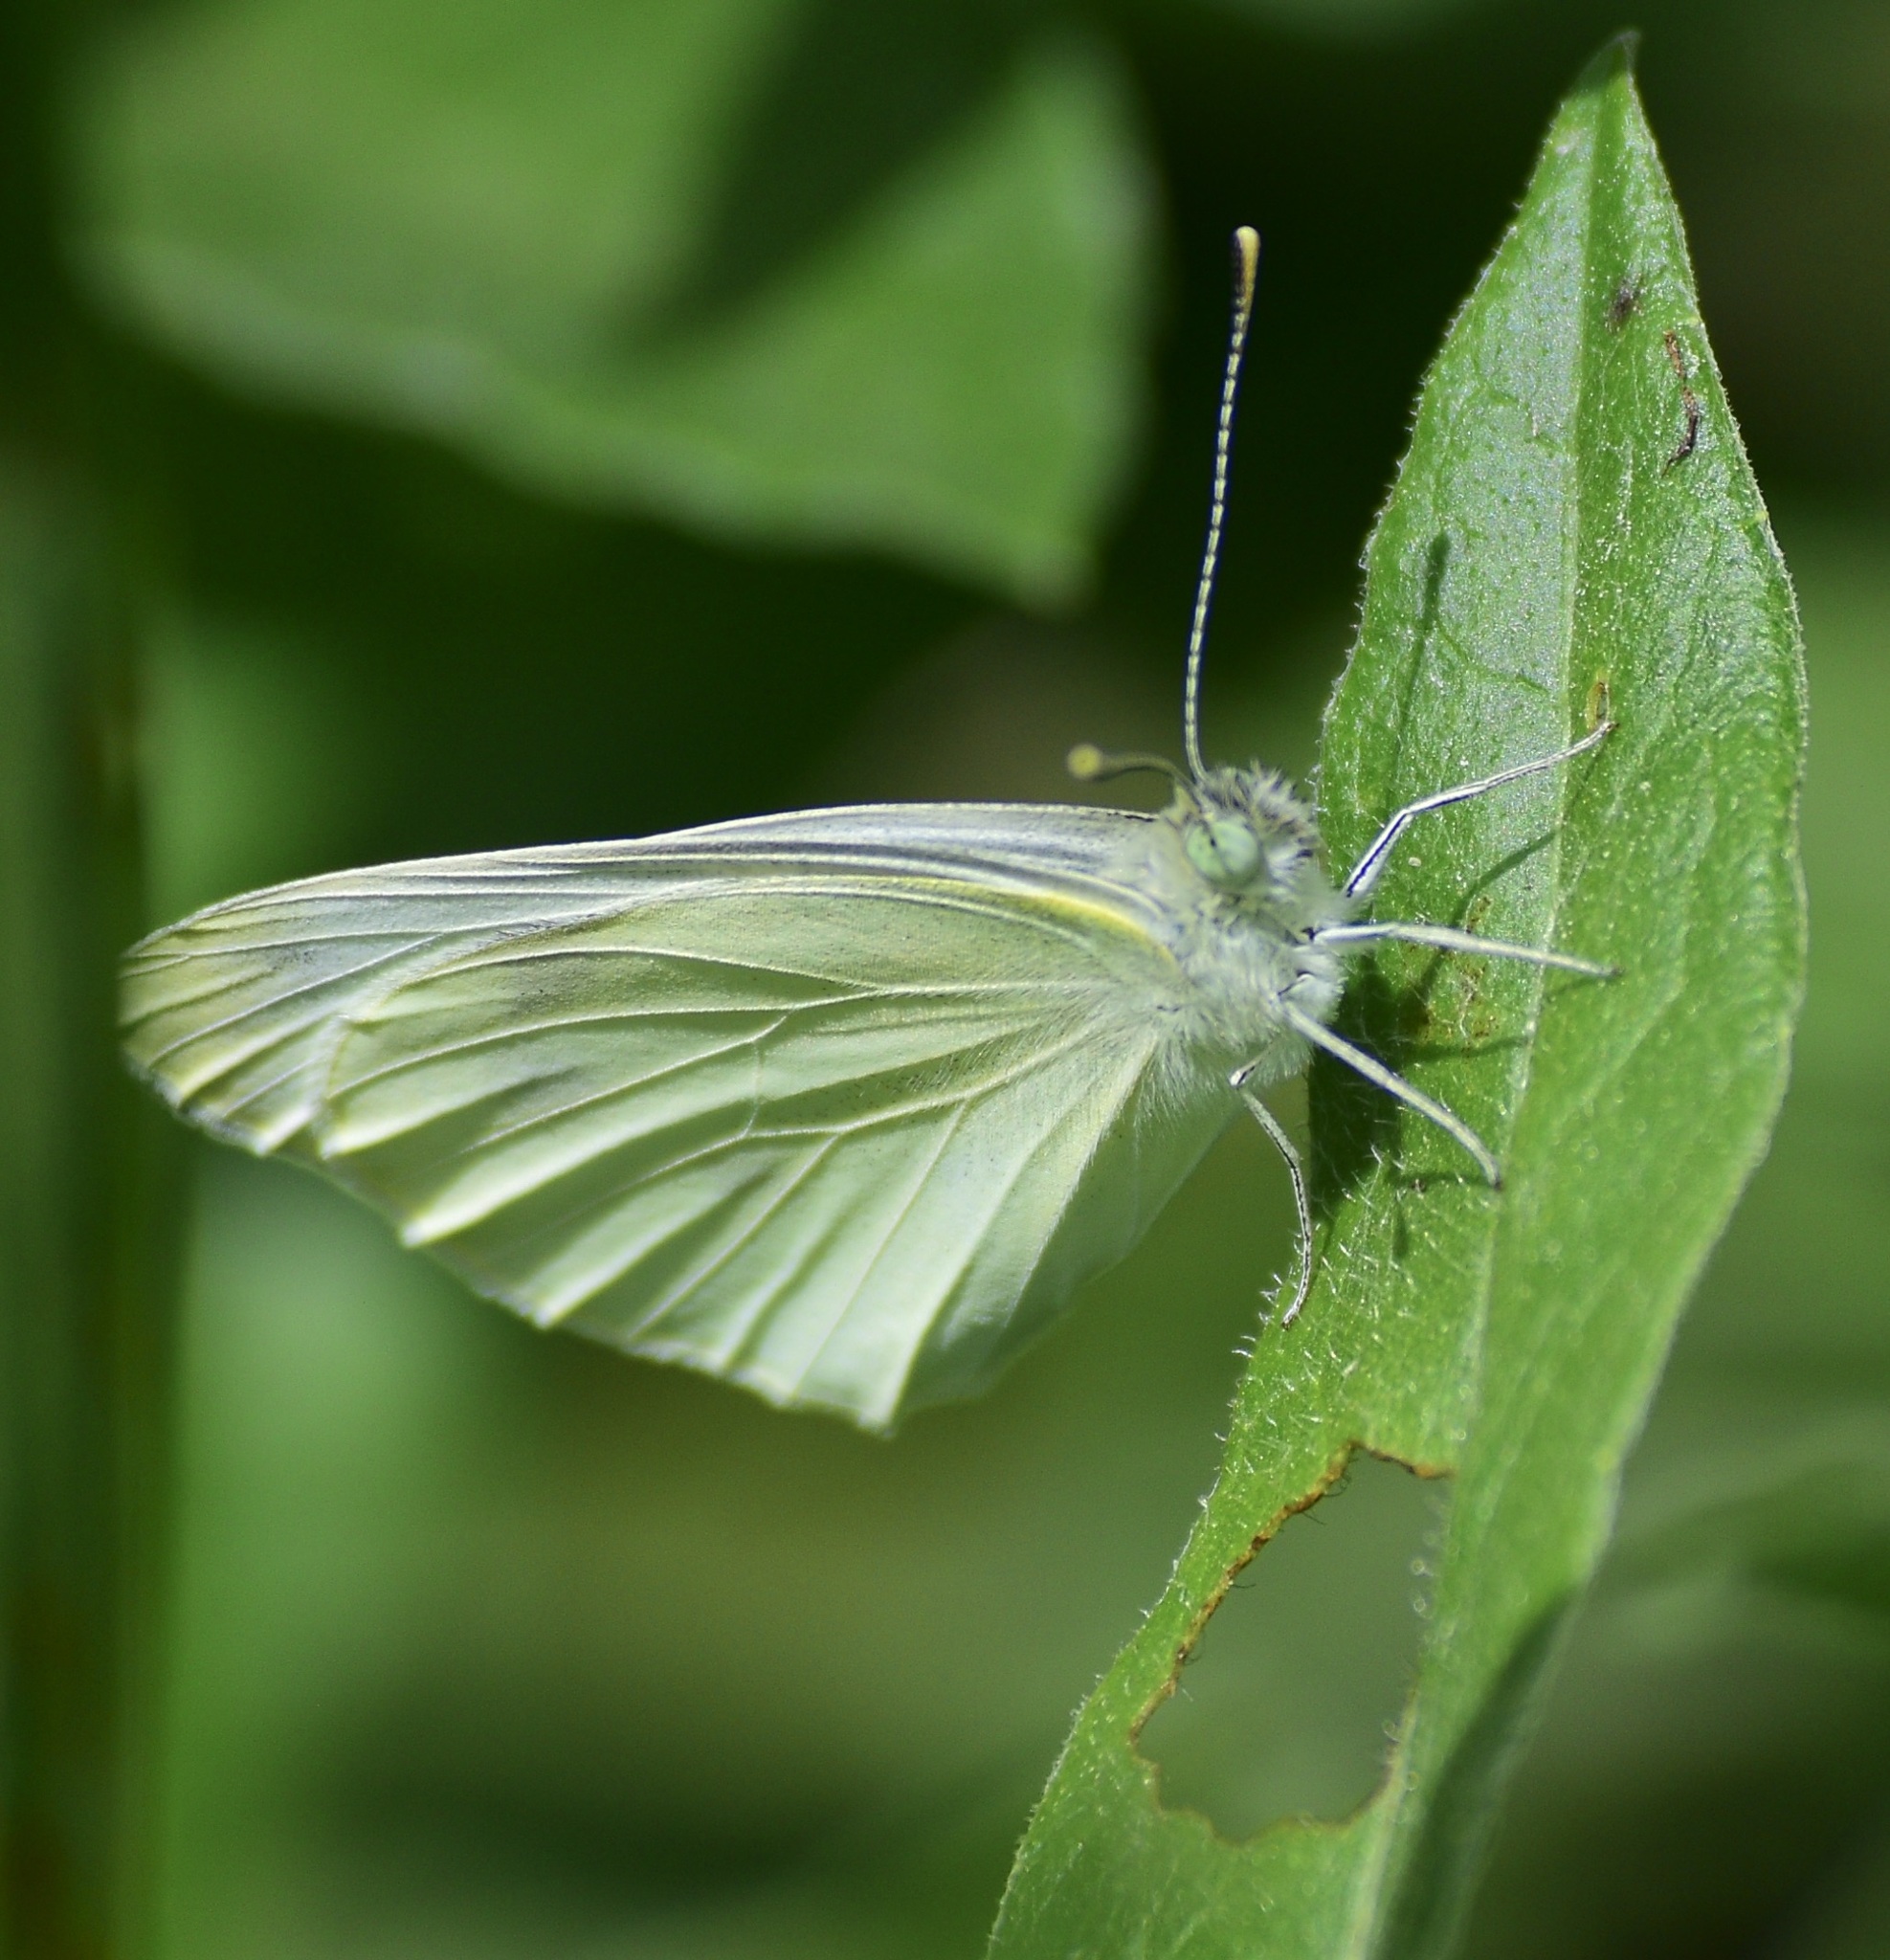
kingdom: Animalia
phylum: Arthropoda
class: Insecta
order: Lepidoptera
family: Pieridae
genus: Pieris
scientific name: Pieris rapae
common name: Small white
